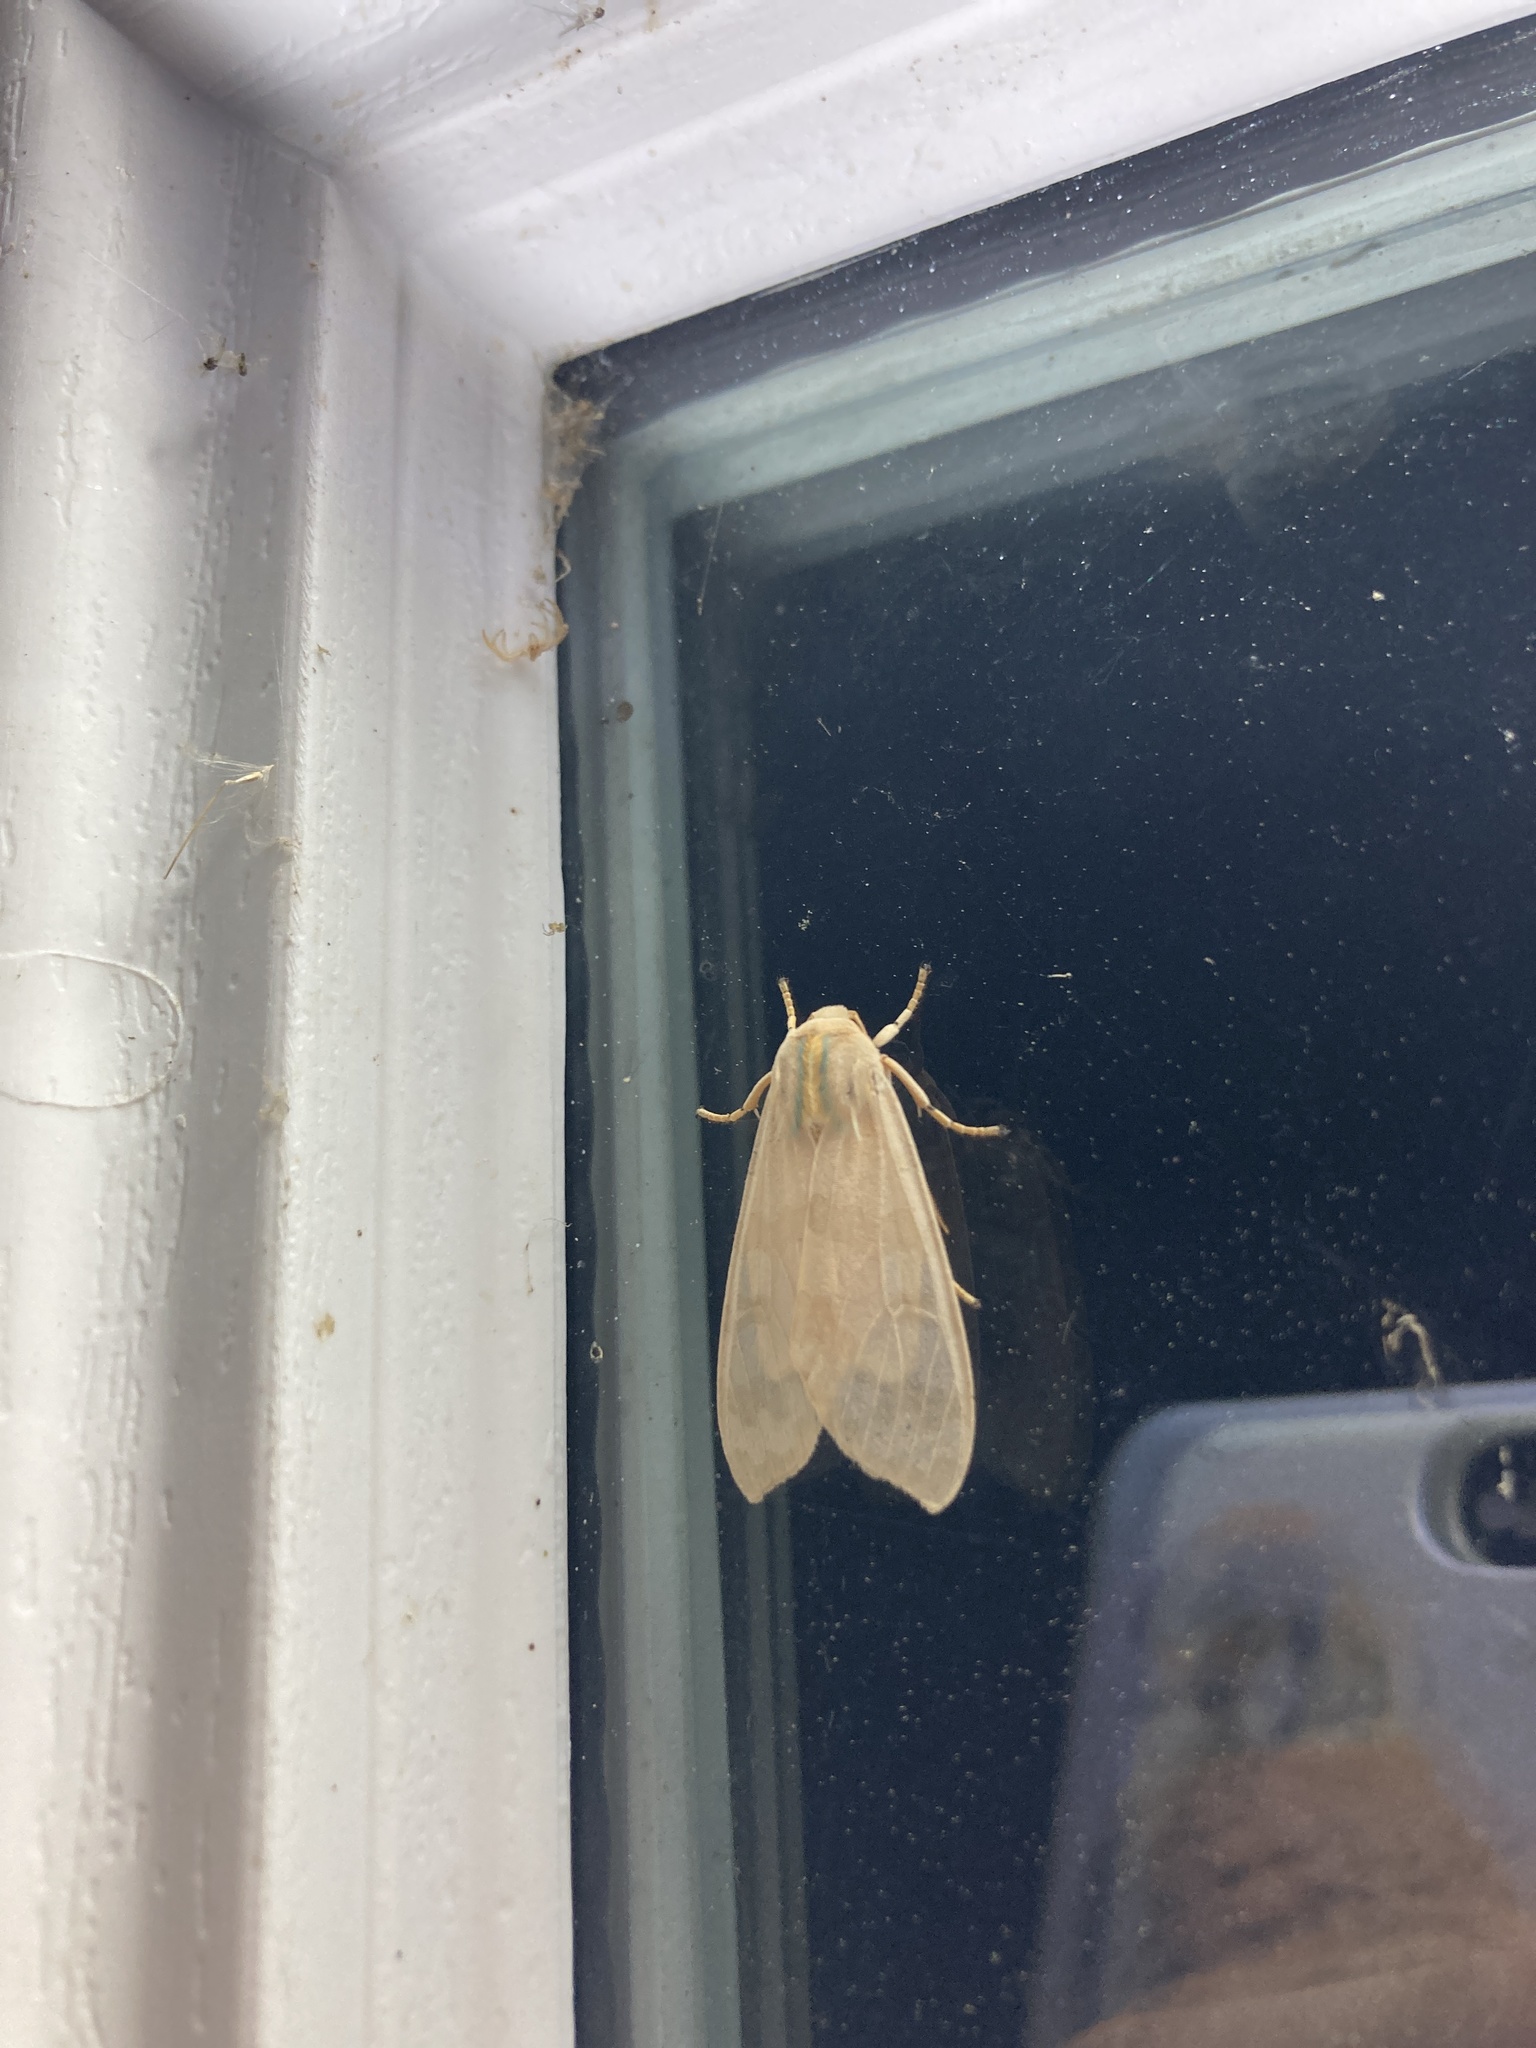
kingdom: Animalia
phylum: Arthropoda
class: Insecta
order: Lepidoptera
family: Erebidae
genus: Halysidota
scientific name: Halysidota
